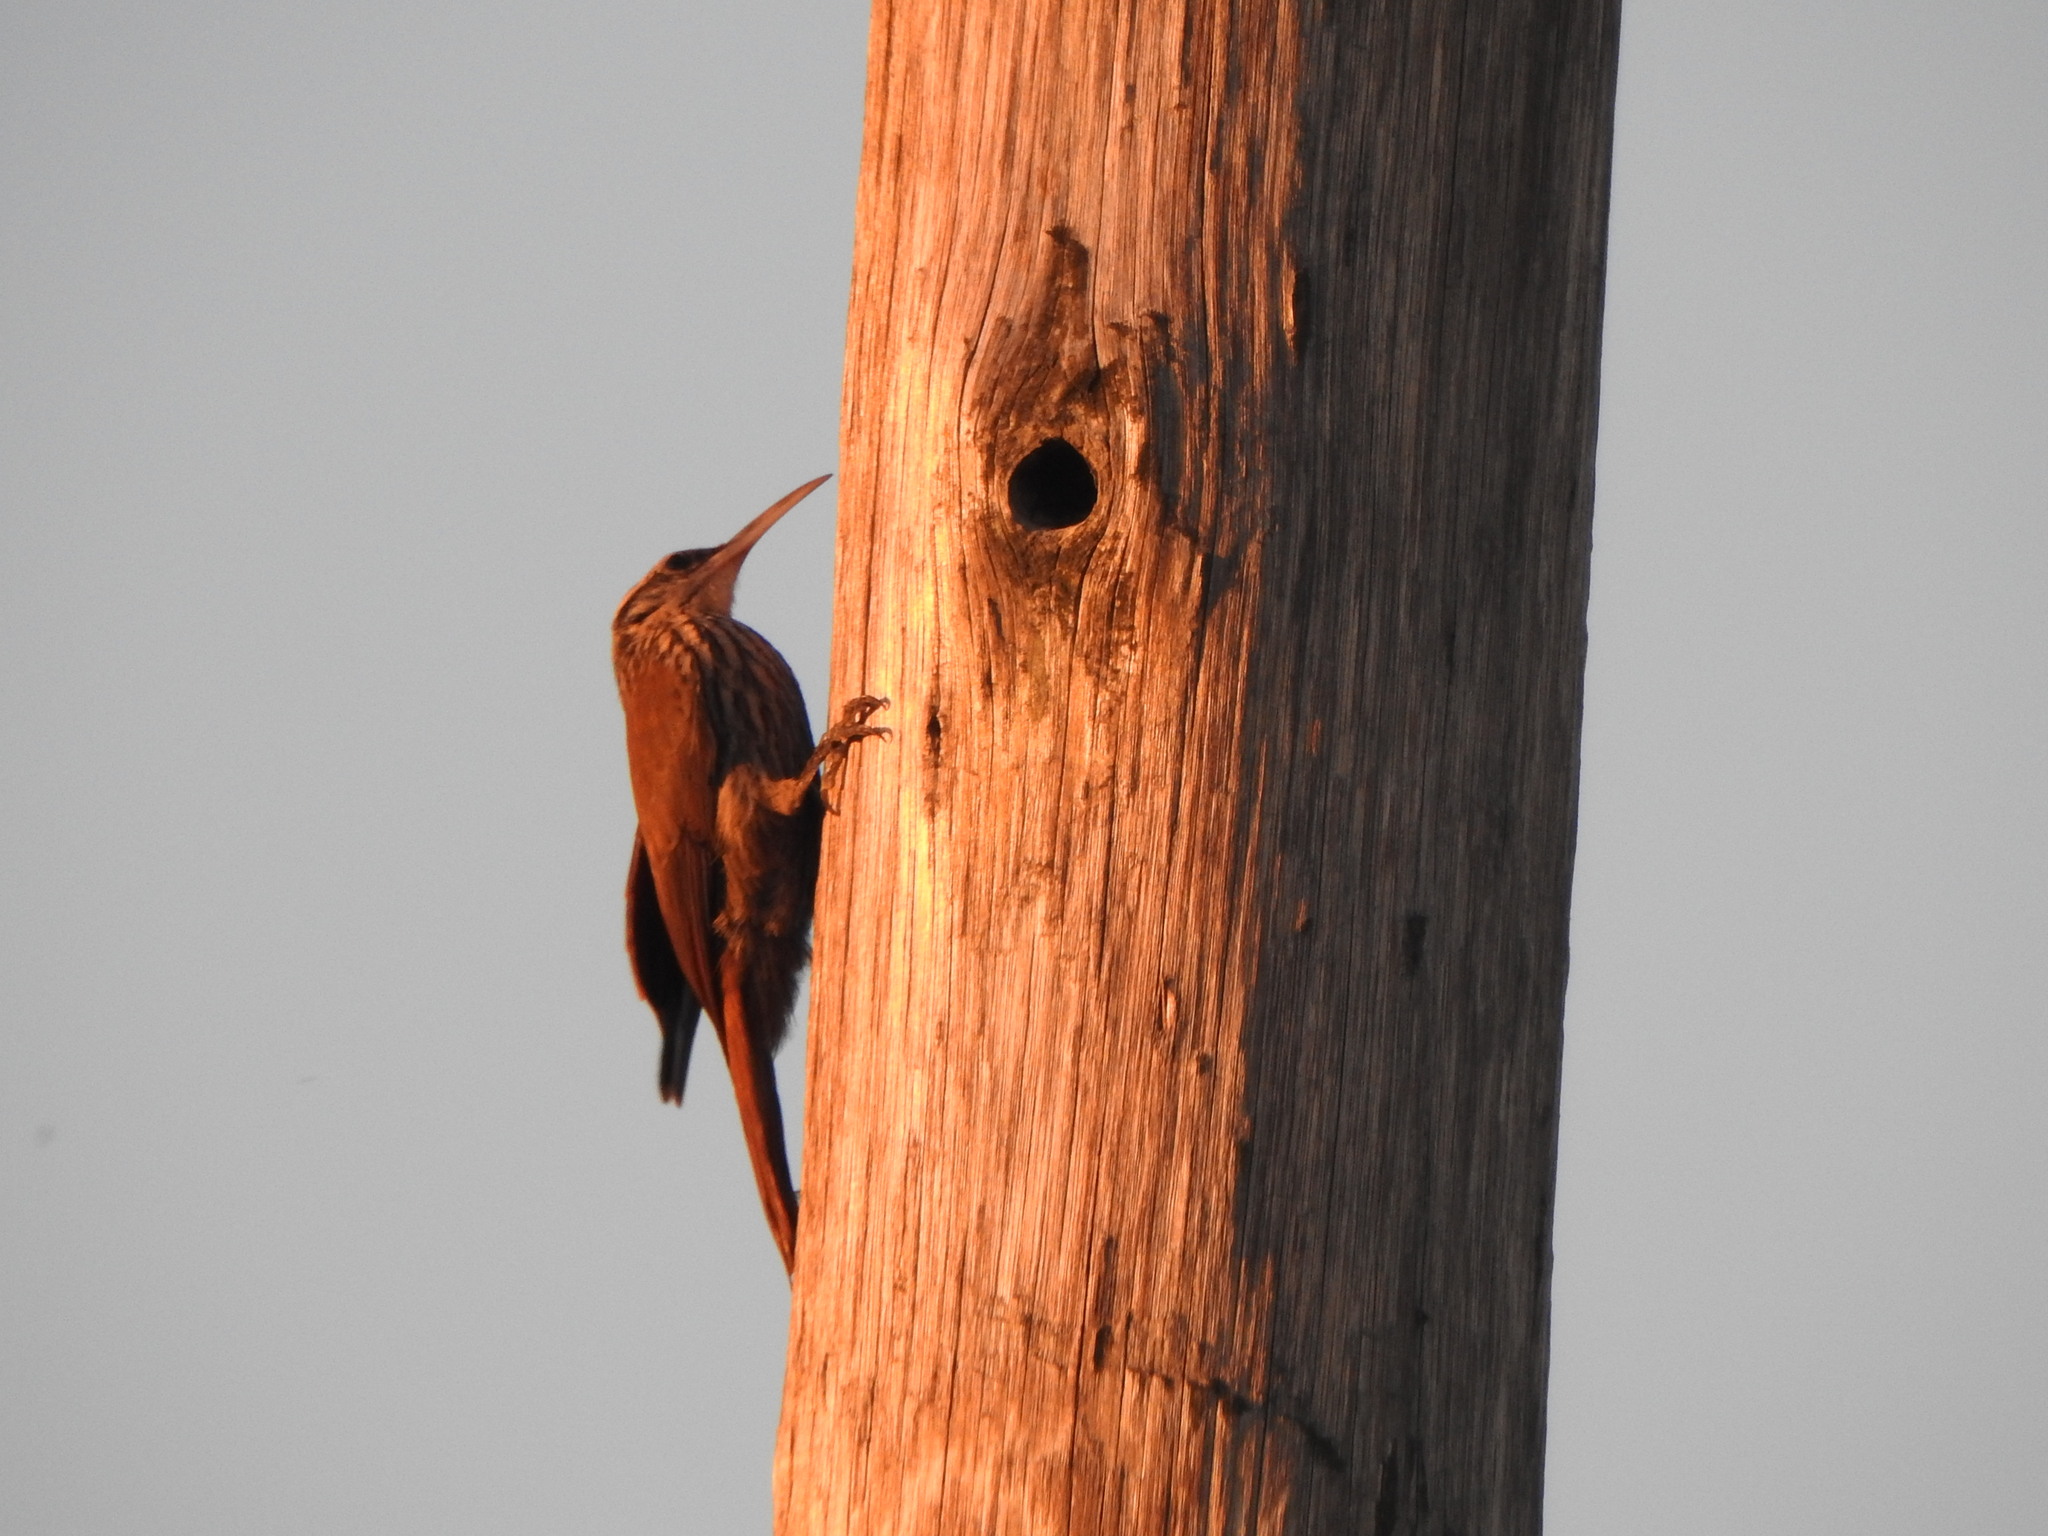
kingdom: Animalia
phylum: Chordata
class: Aves
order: Passeriformes
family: Furnariidae
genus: Lepidocolaptes
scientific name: Lepidocolaptes angustirostris
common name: Narrow-billed woodcreeper
